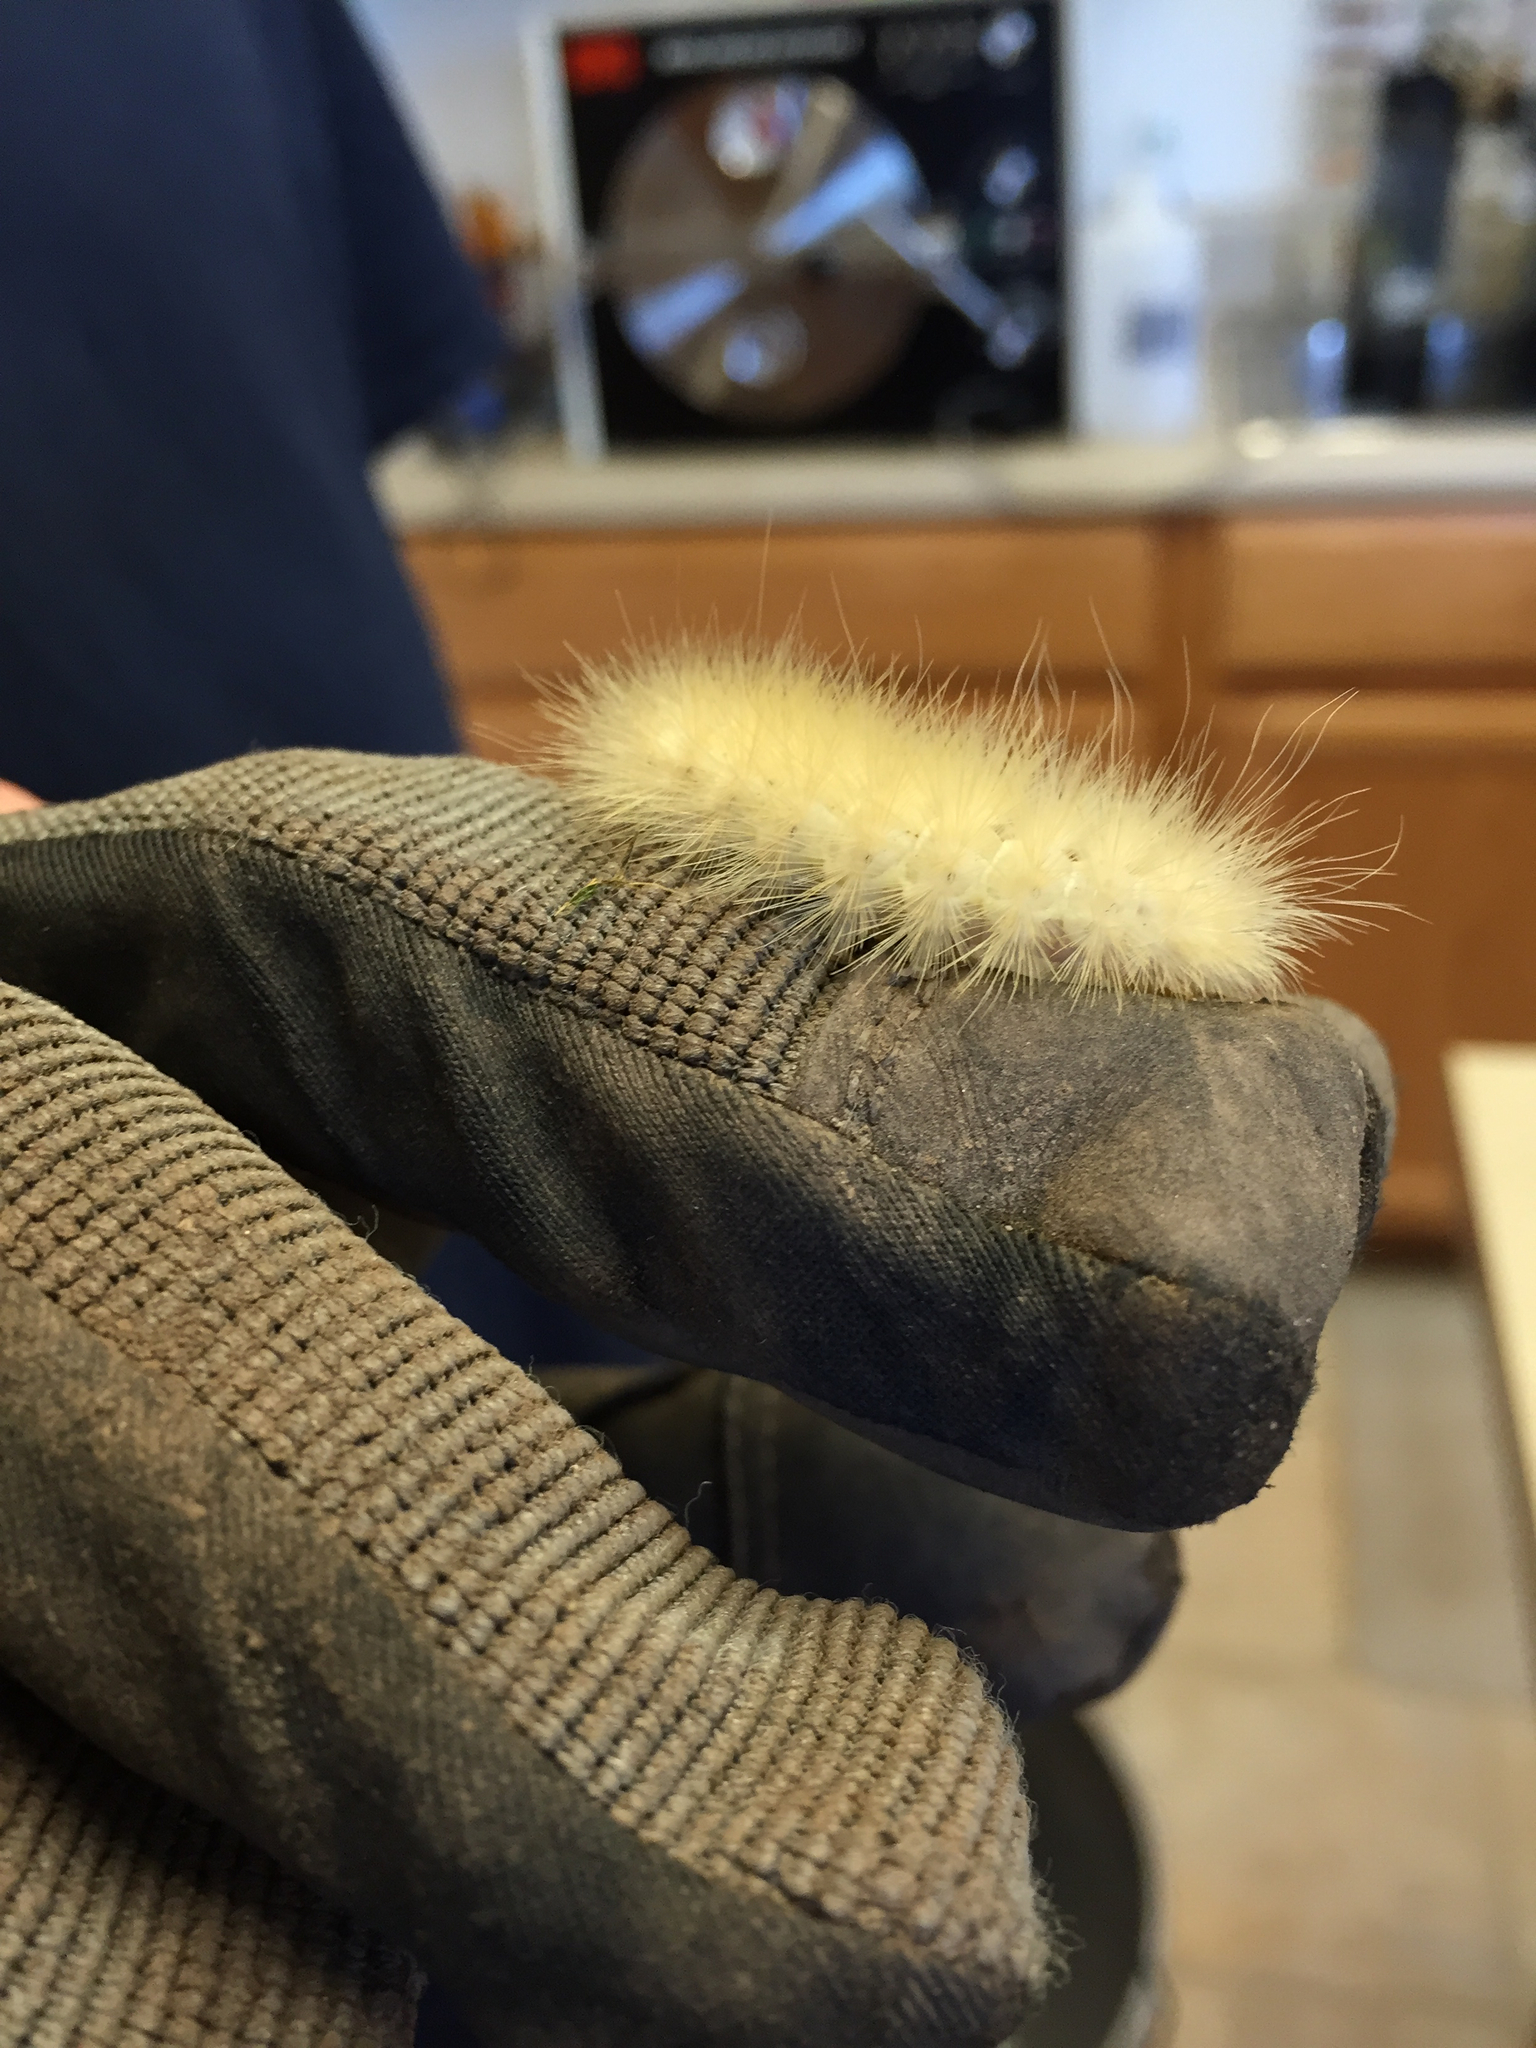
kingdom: Animalia
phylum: Arthropoda
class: Insecta
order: Lepidoptera
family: Erebidae
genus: Spilosoma
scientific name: Spilosoma virginica
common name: Virginia tiger moth
